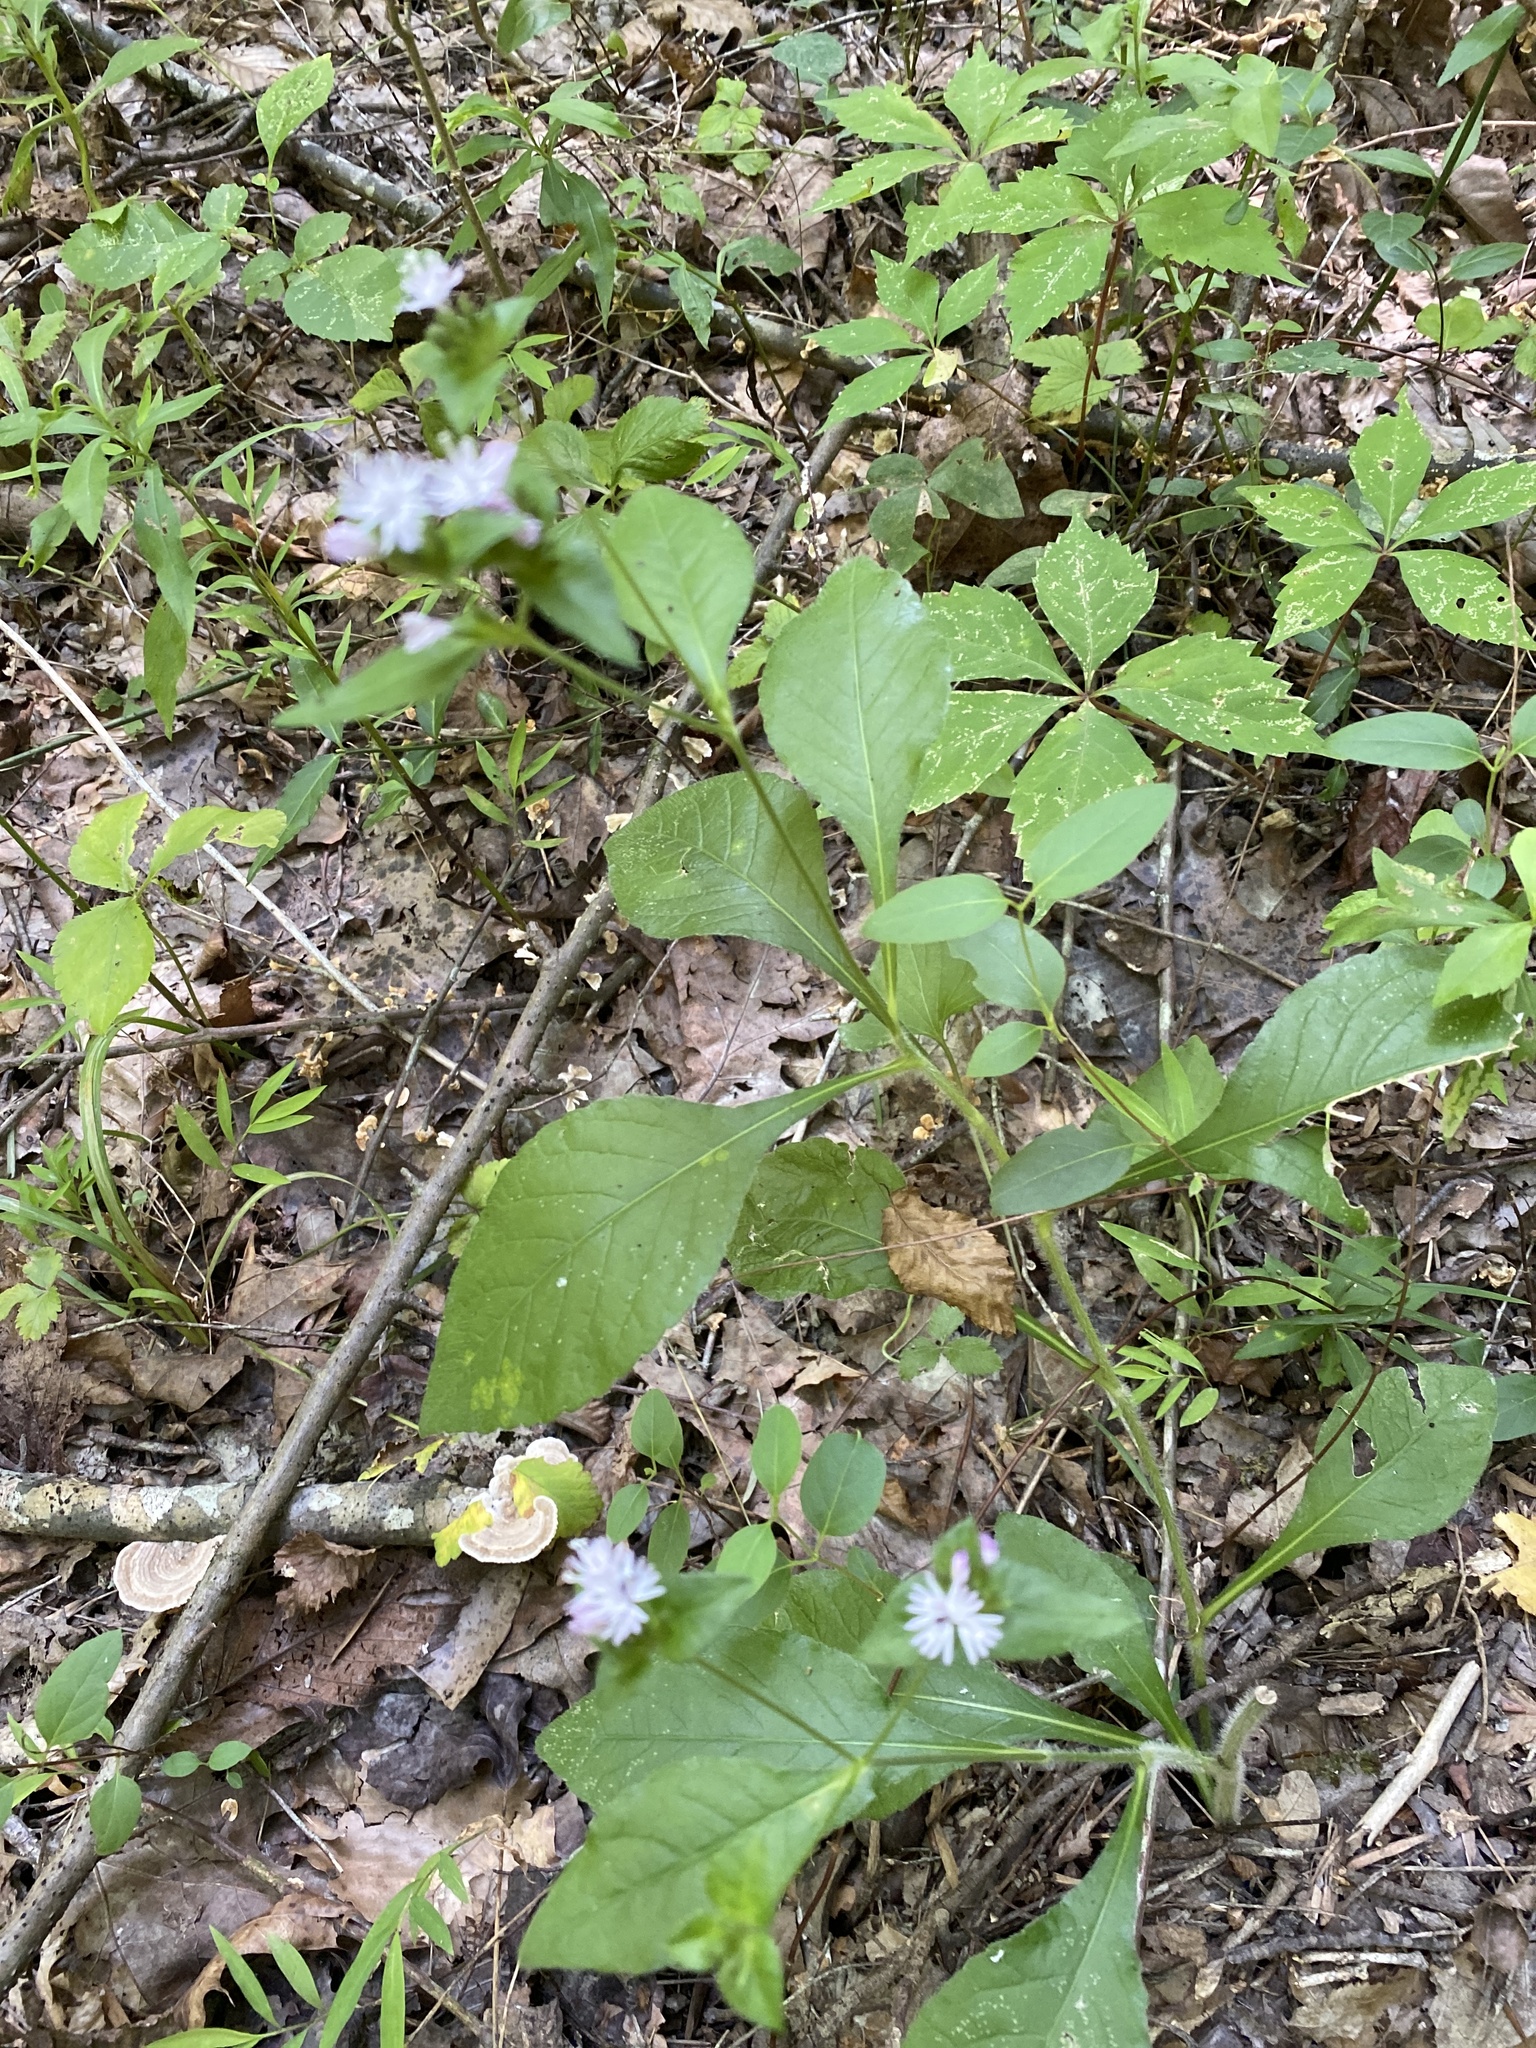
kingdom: Plantae
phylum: Tracheophyta
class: Magnoliopsida
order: Asterales
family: Asteraceae
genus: Elephantopus
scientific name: Elephantopus carolinianus
